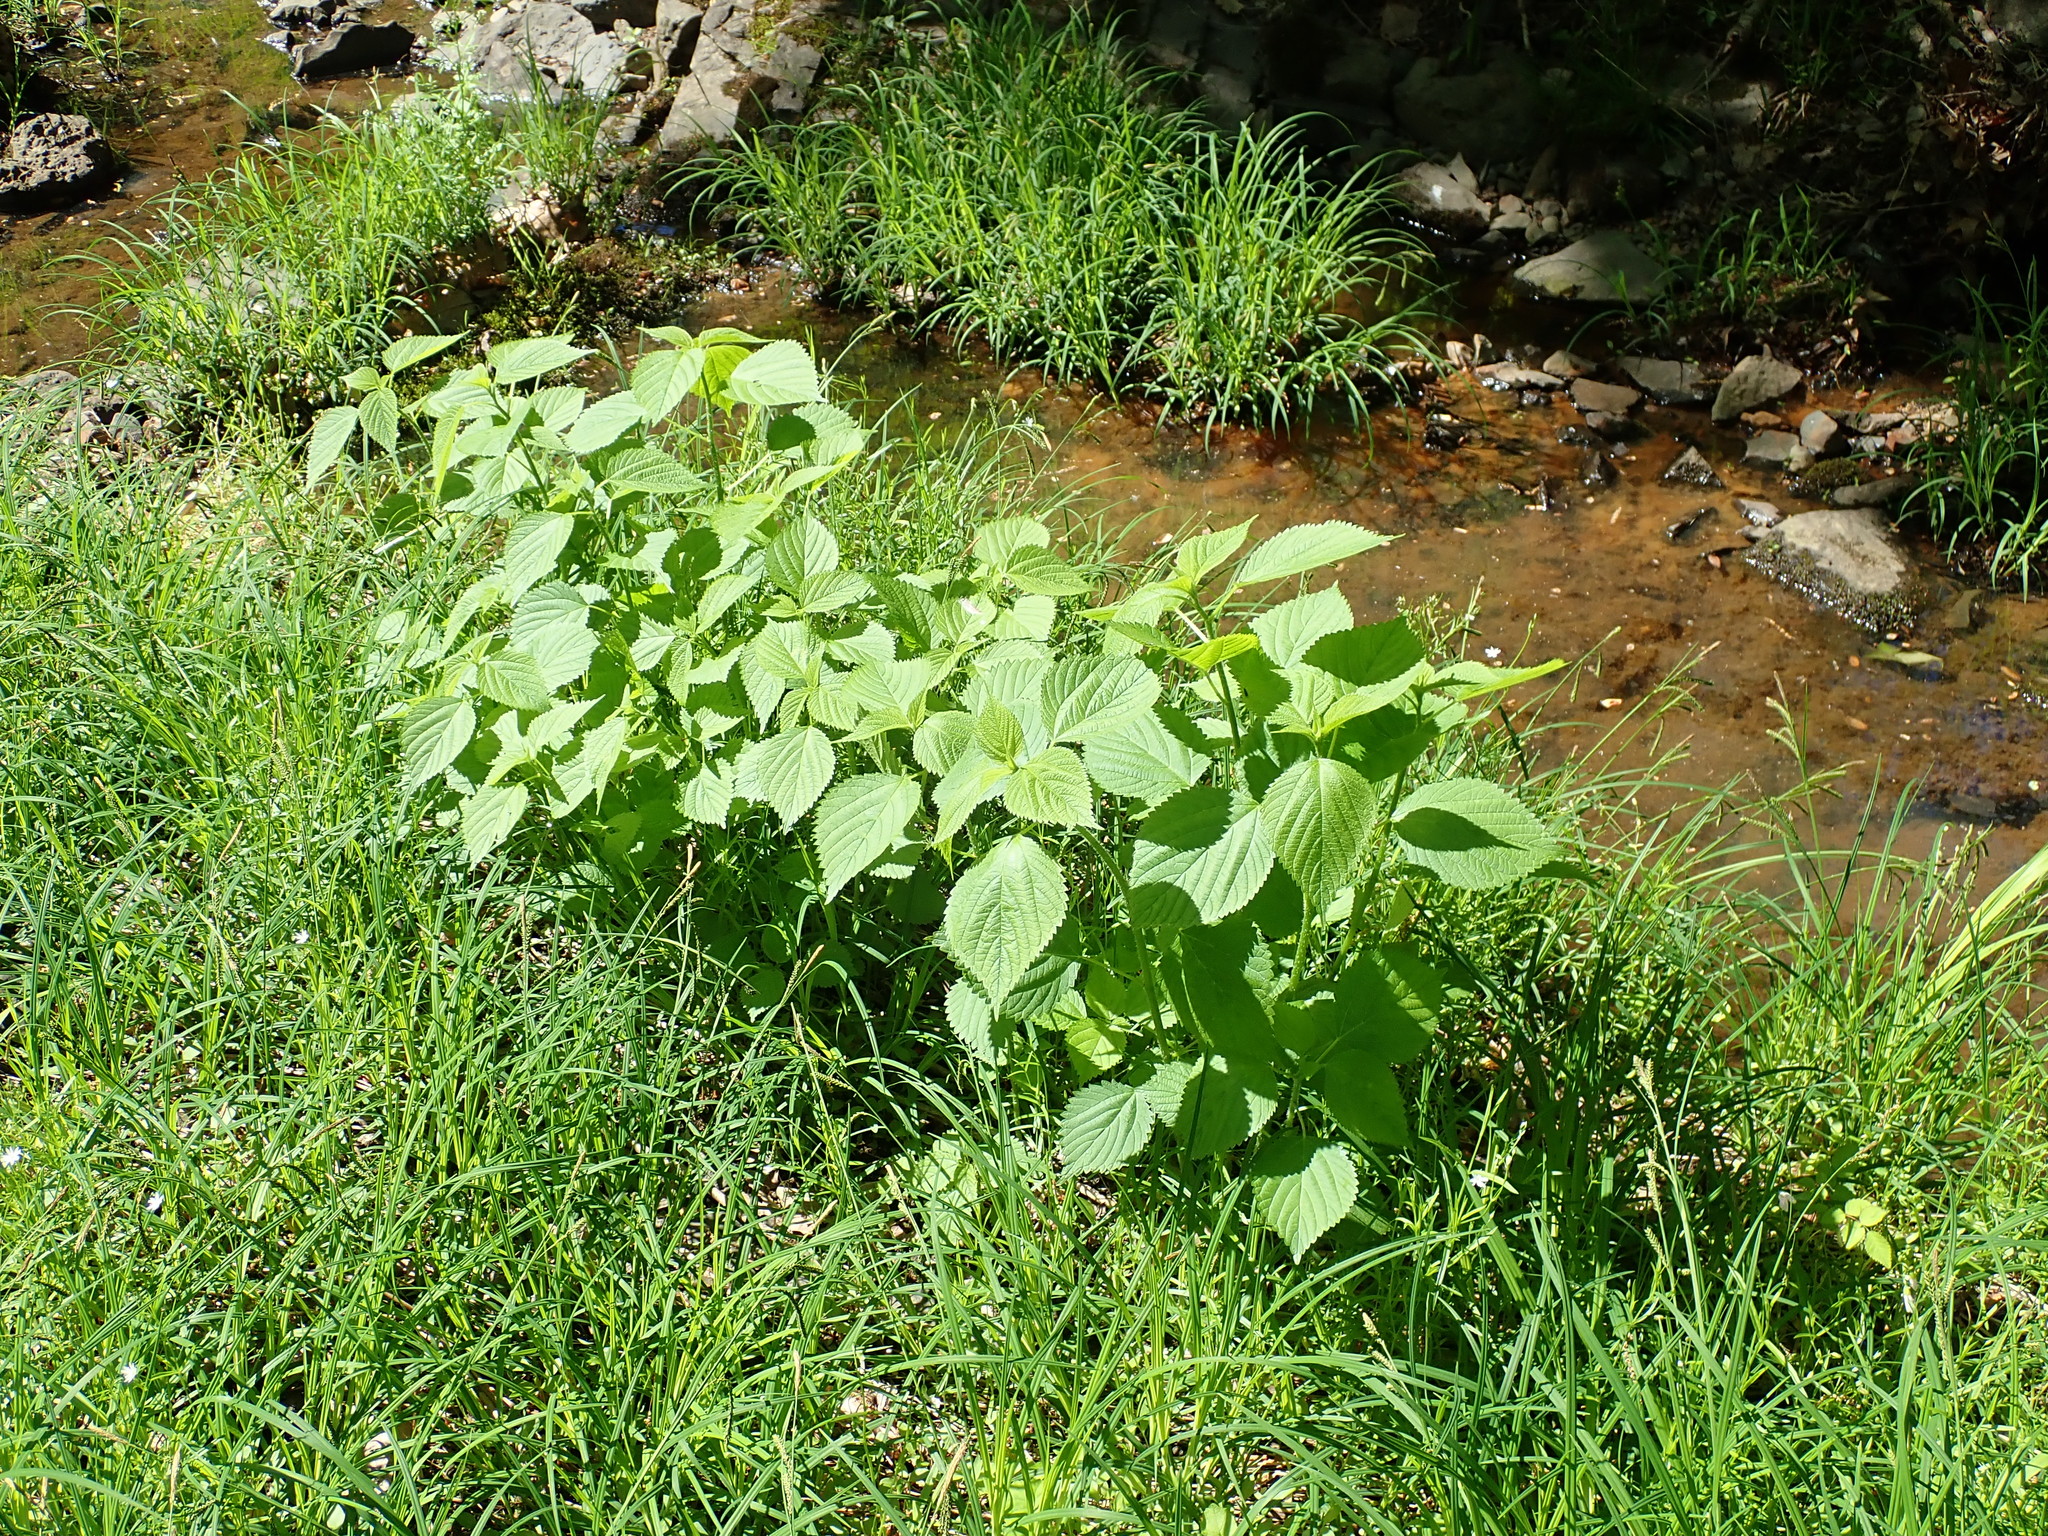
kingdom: Plantae
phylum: Tracheophyta
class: Magnoliopsida
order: Rosales
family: Urticaceae
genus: Laportea
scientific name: Laportea canadensis
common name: Canada nettle
